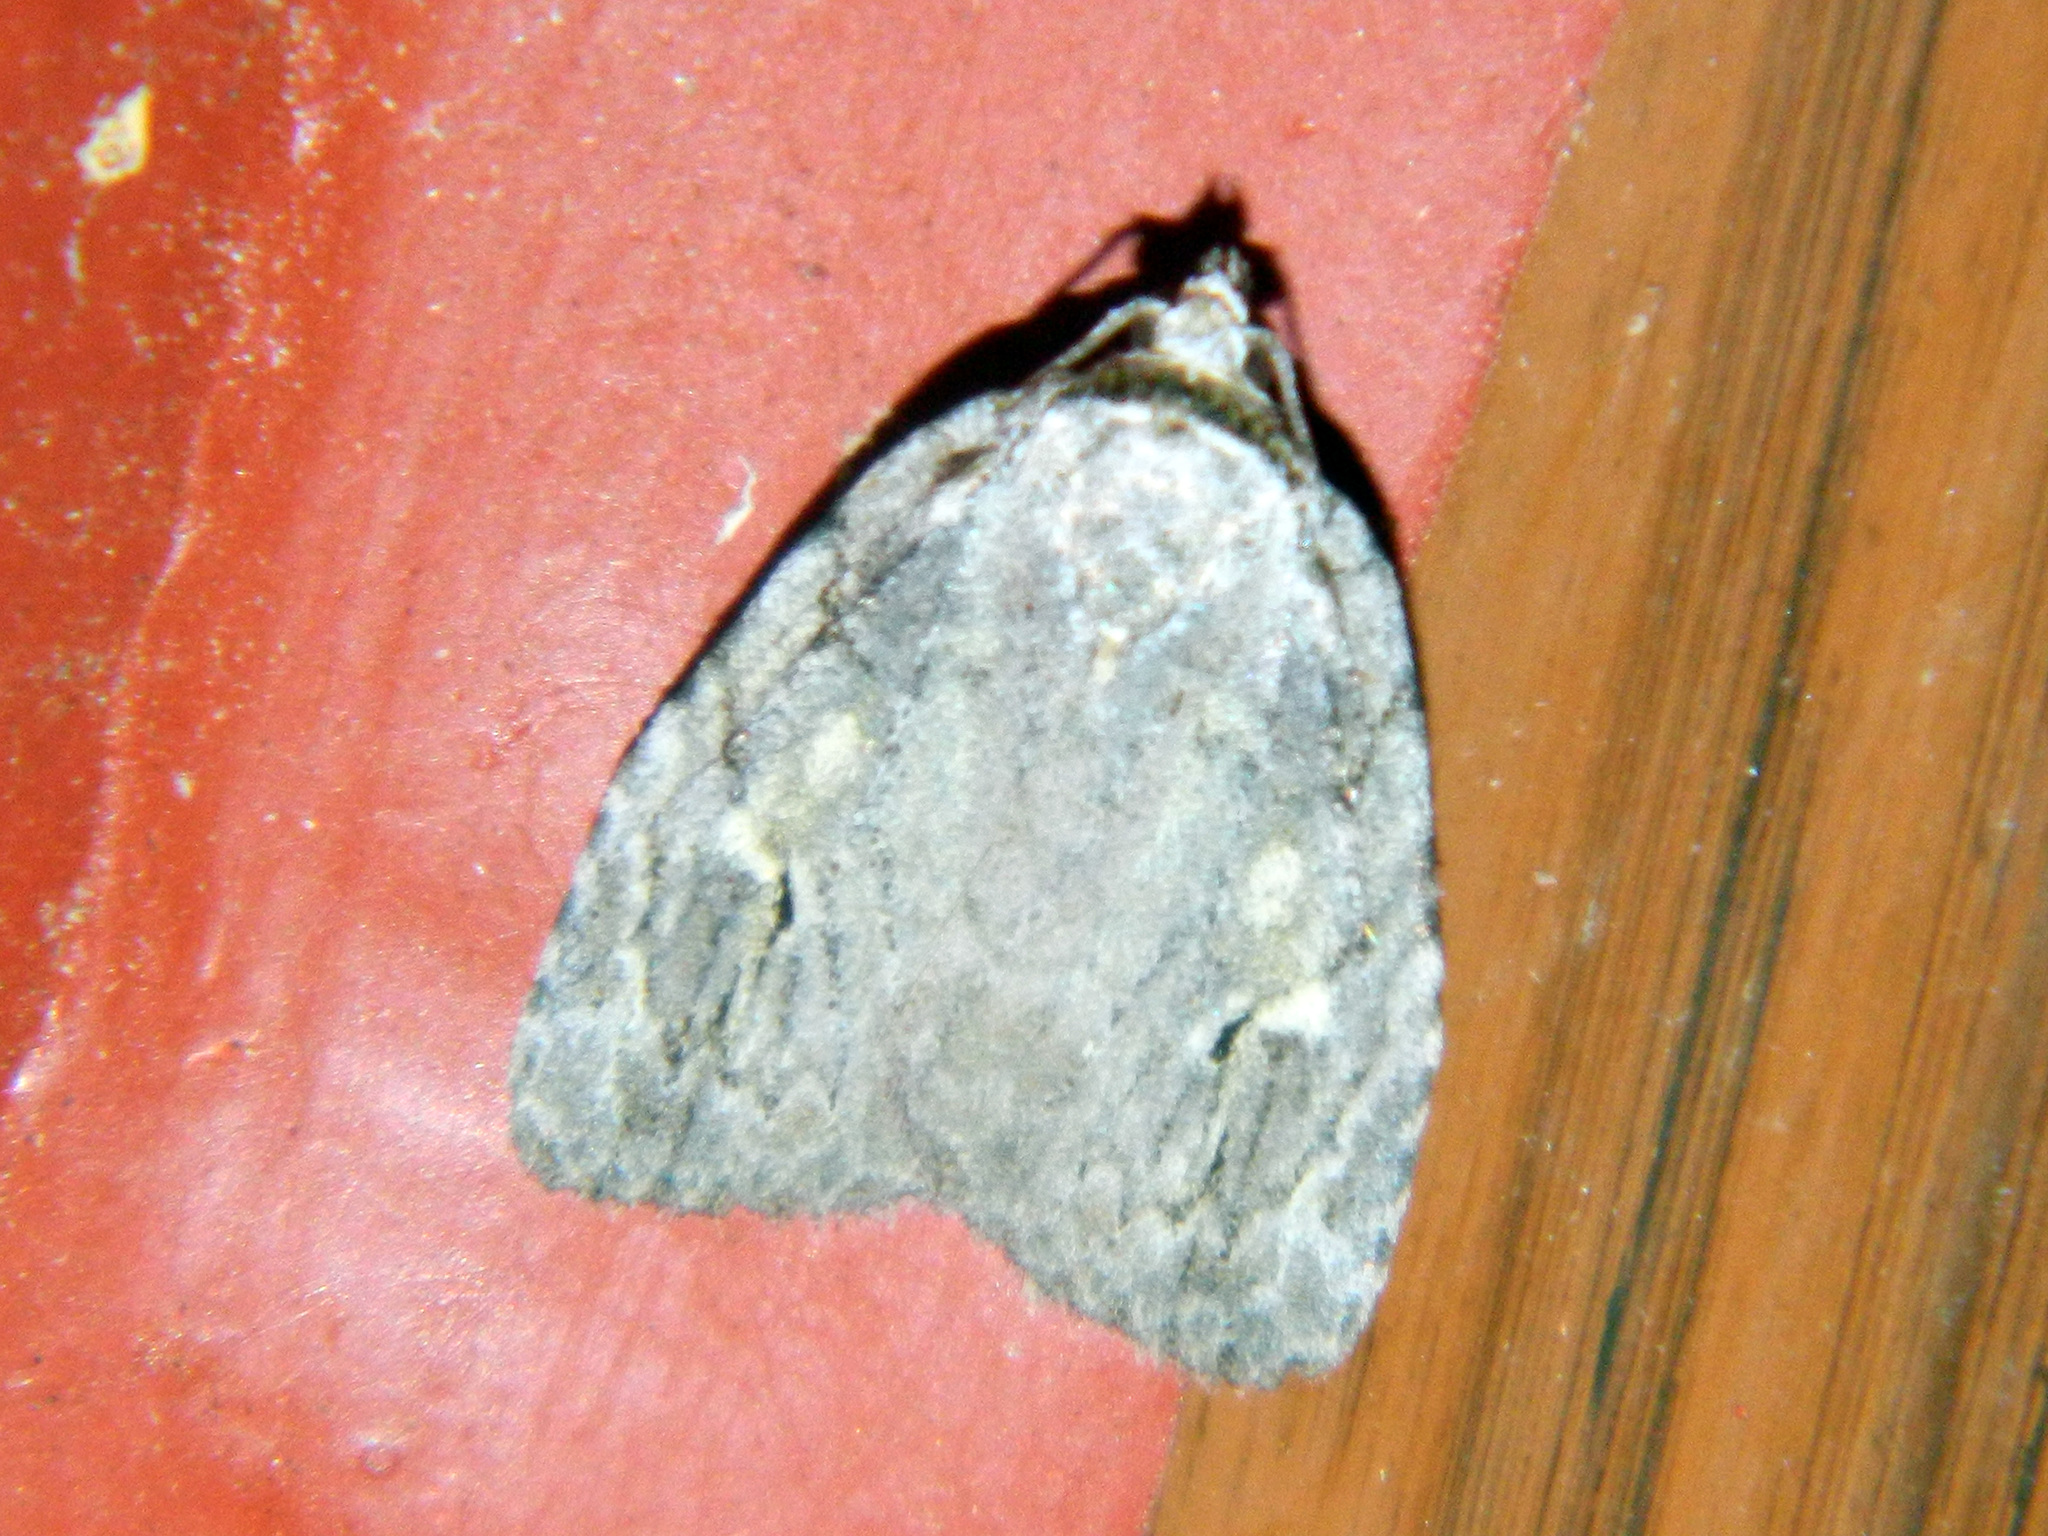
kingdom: Animalia
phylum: Arthropoda
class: Insecta
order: Lepidoptera
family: Noctuidae
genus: Balsa
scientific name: Balsa labecula
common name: White-blotched balsa moth
